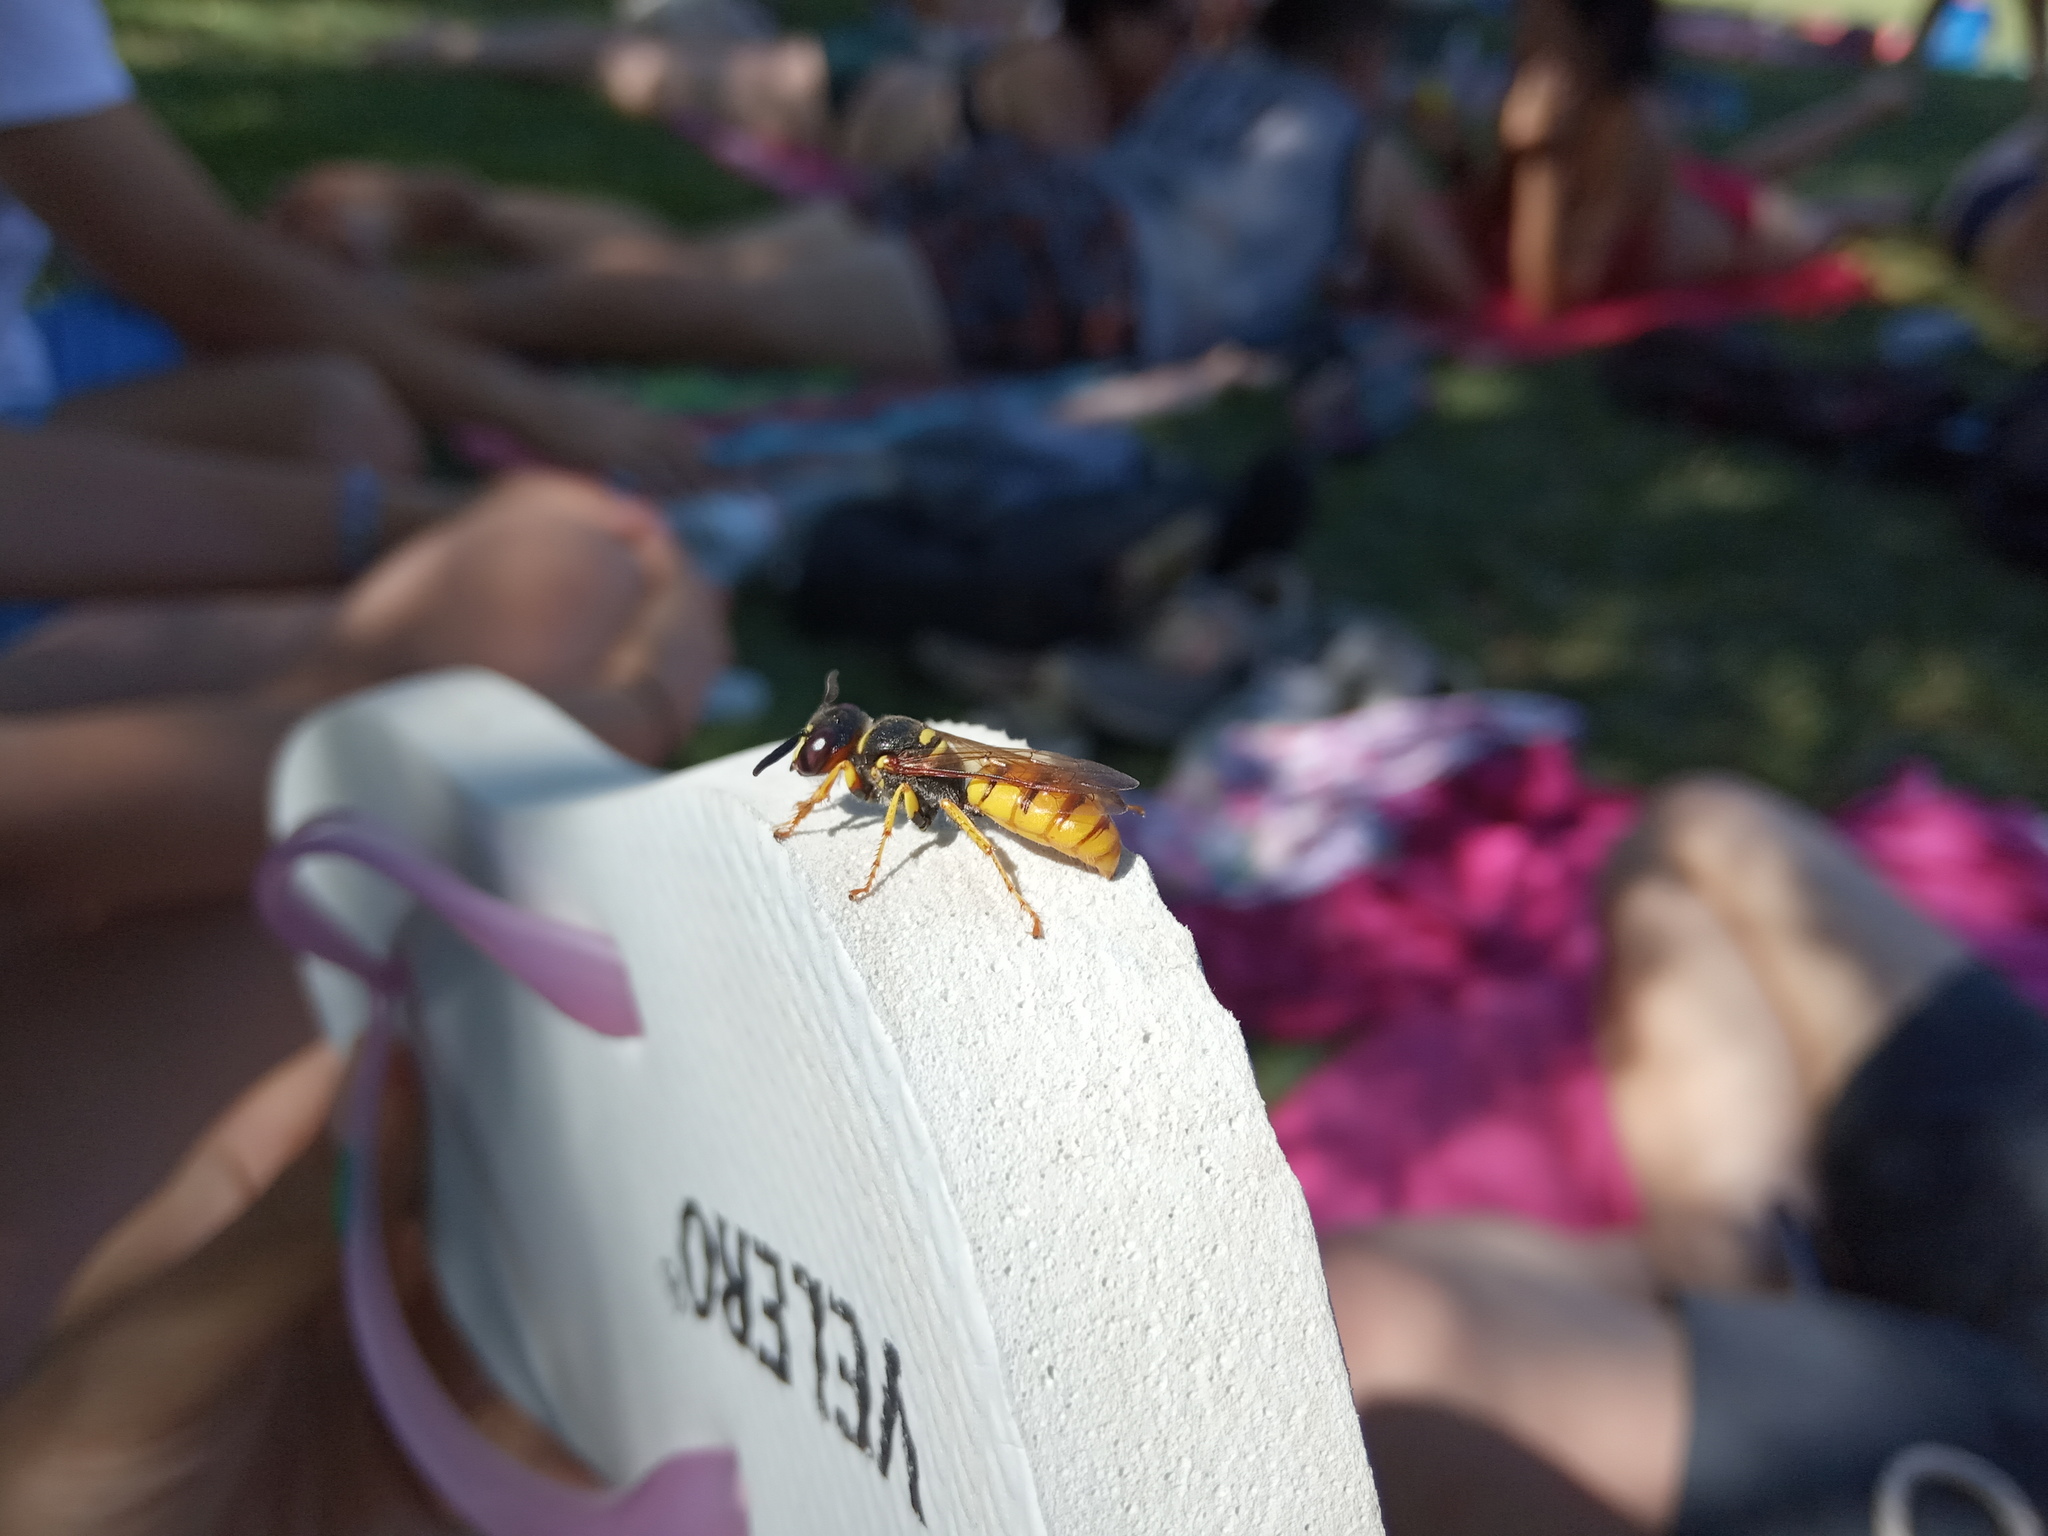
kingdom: Animalia
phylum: Arthropoda
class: Insecta
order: Hymenoptera
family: Crabronidae
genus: Philanthus
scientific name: Philanthus triangulum
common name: Bee wolf
